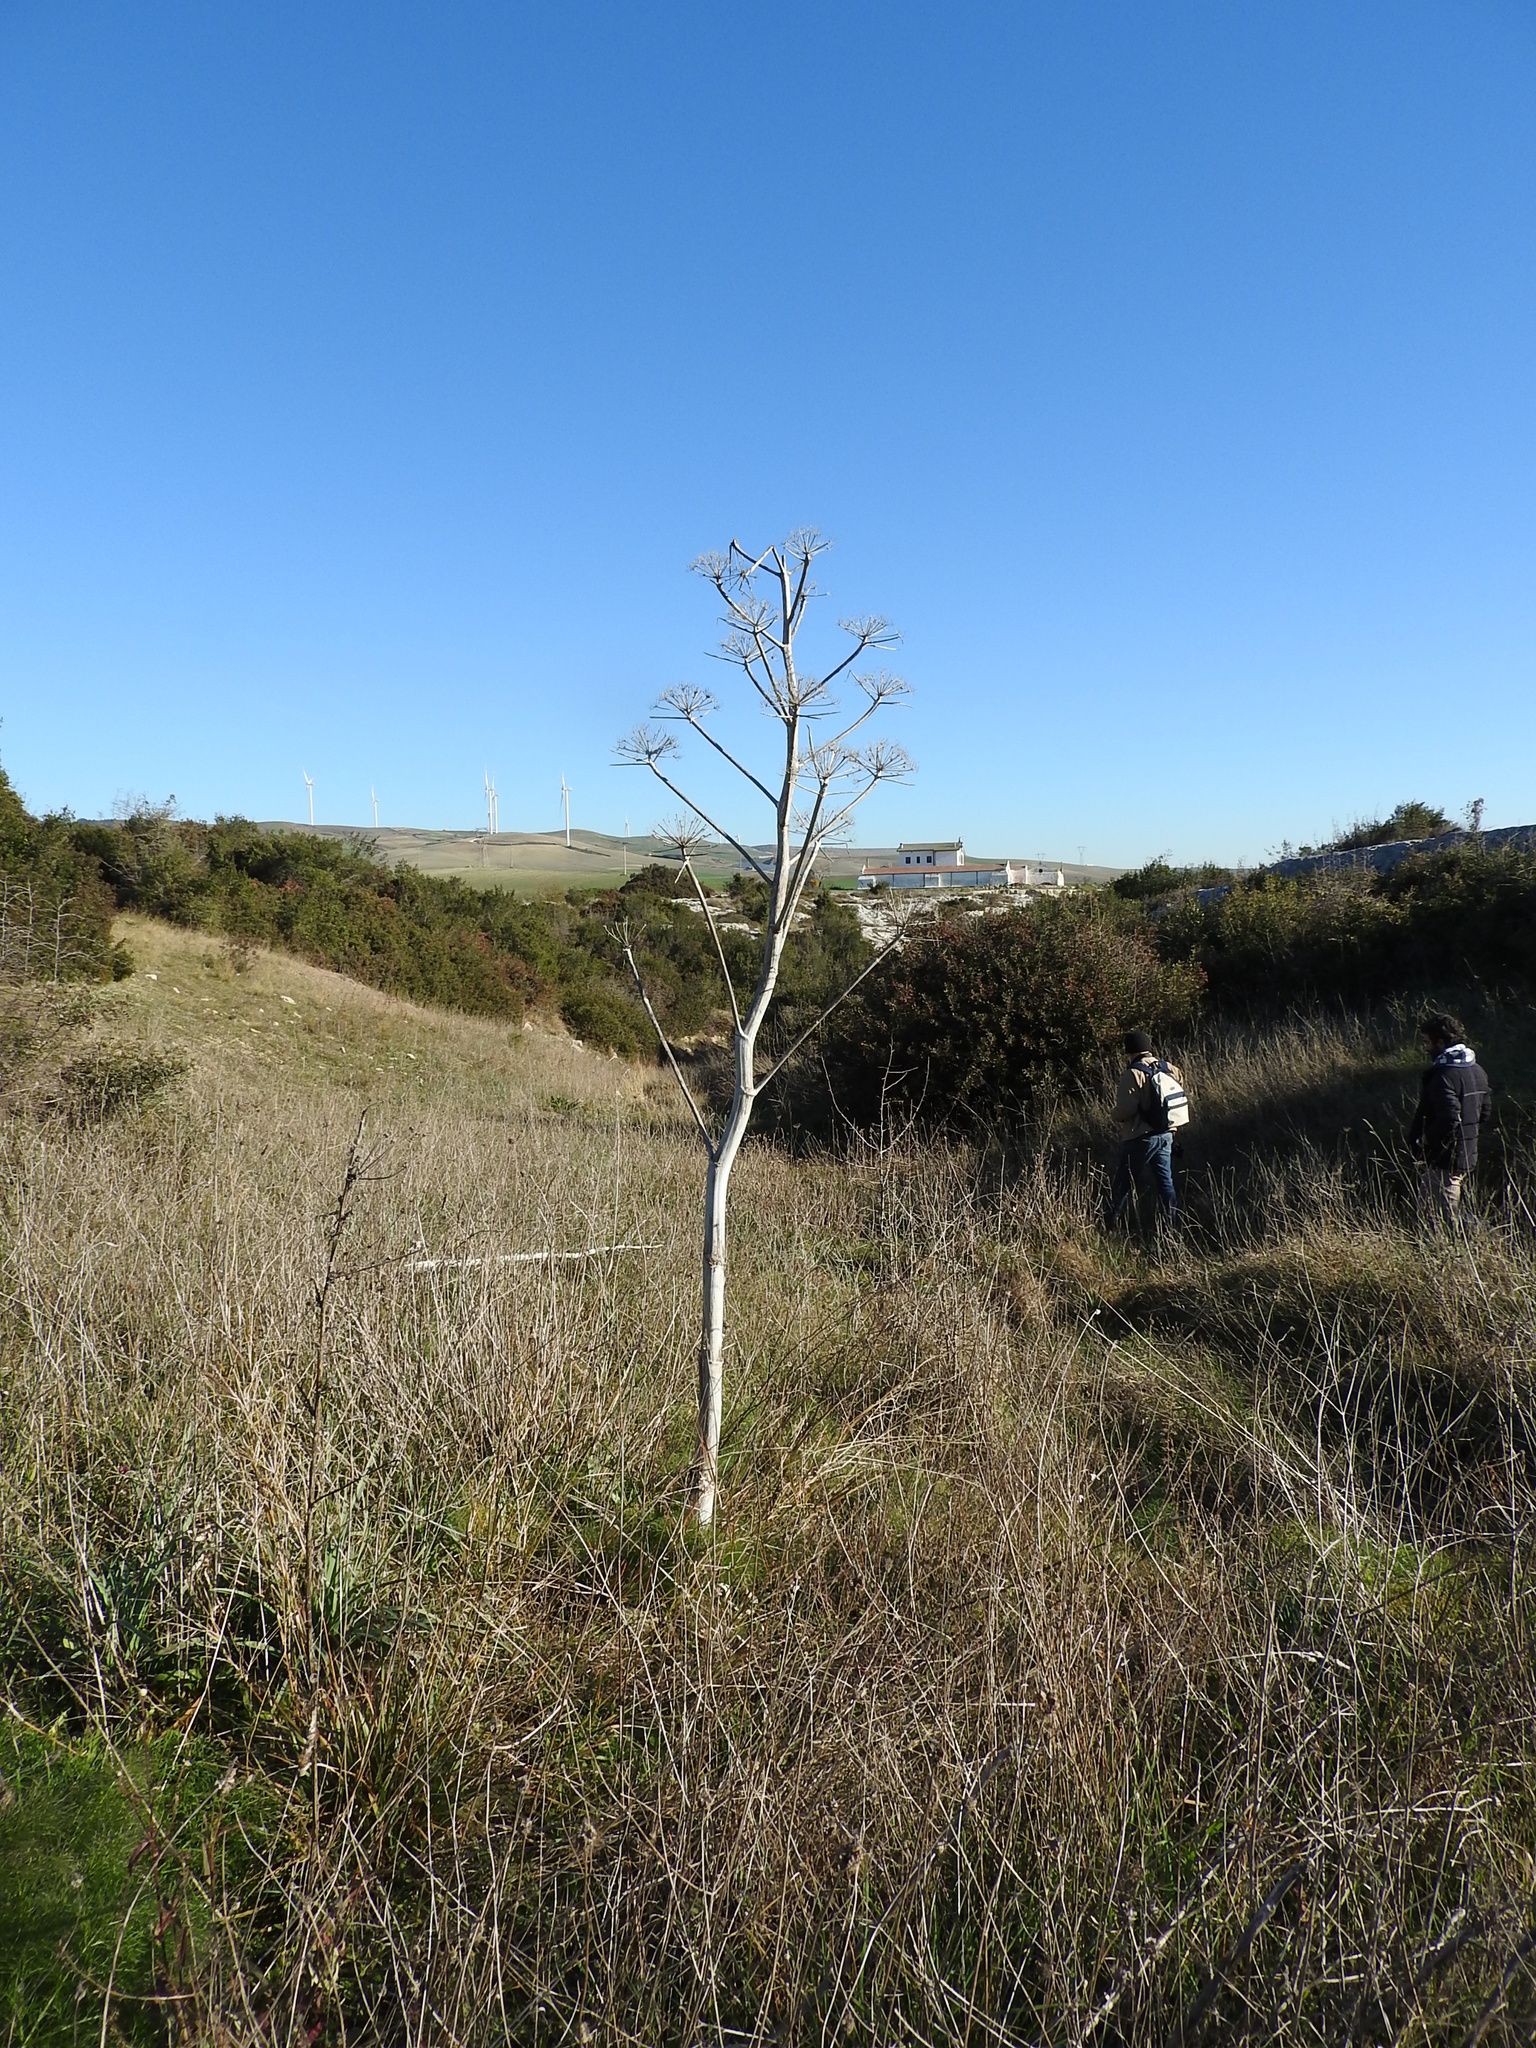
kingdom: Plantae
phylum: Tracheophyta
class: Magnoliopsida
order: Apiales
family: Apiaceae
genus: Ferula
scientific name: Ferula communis
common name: Giant fennel
